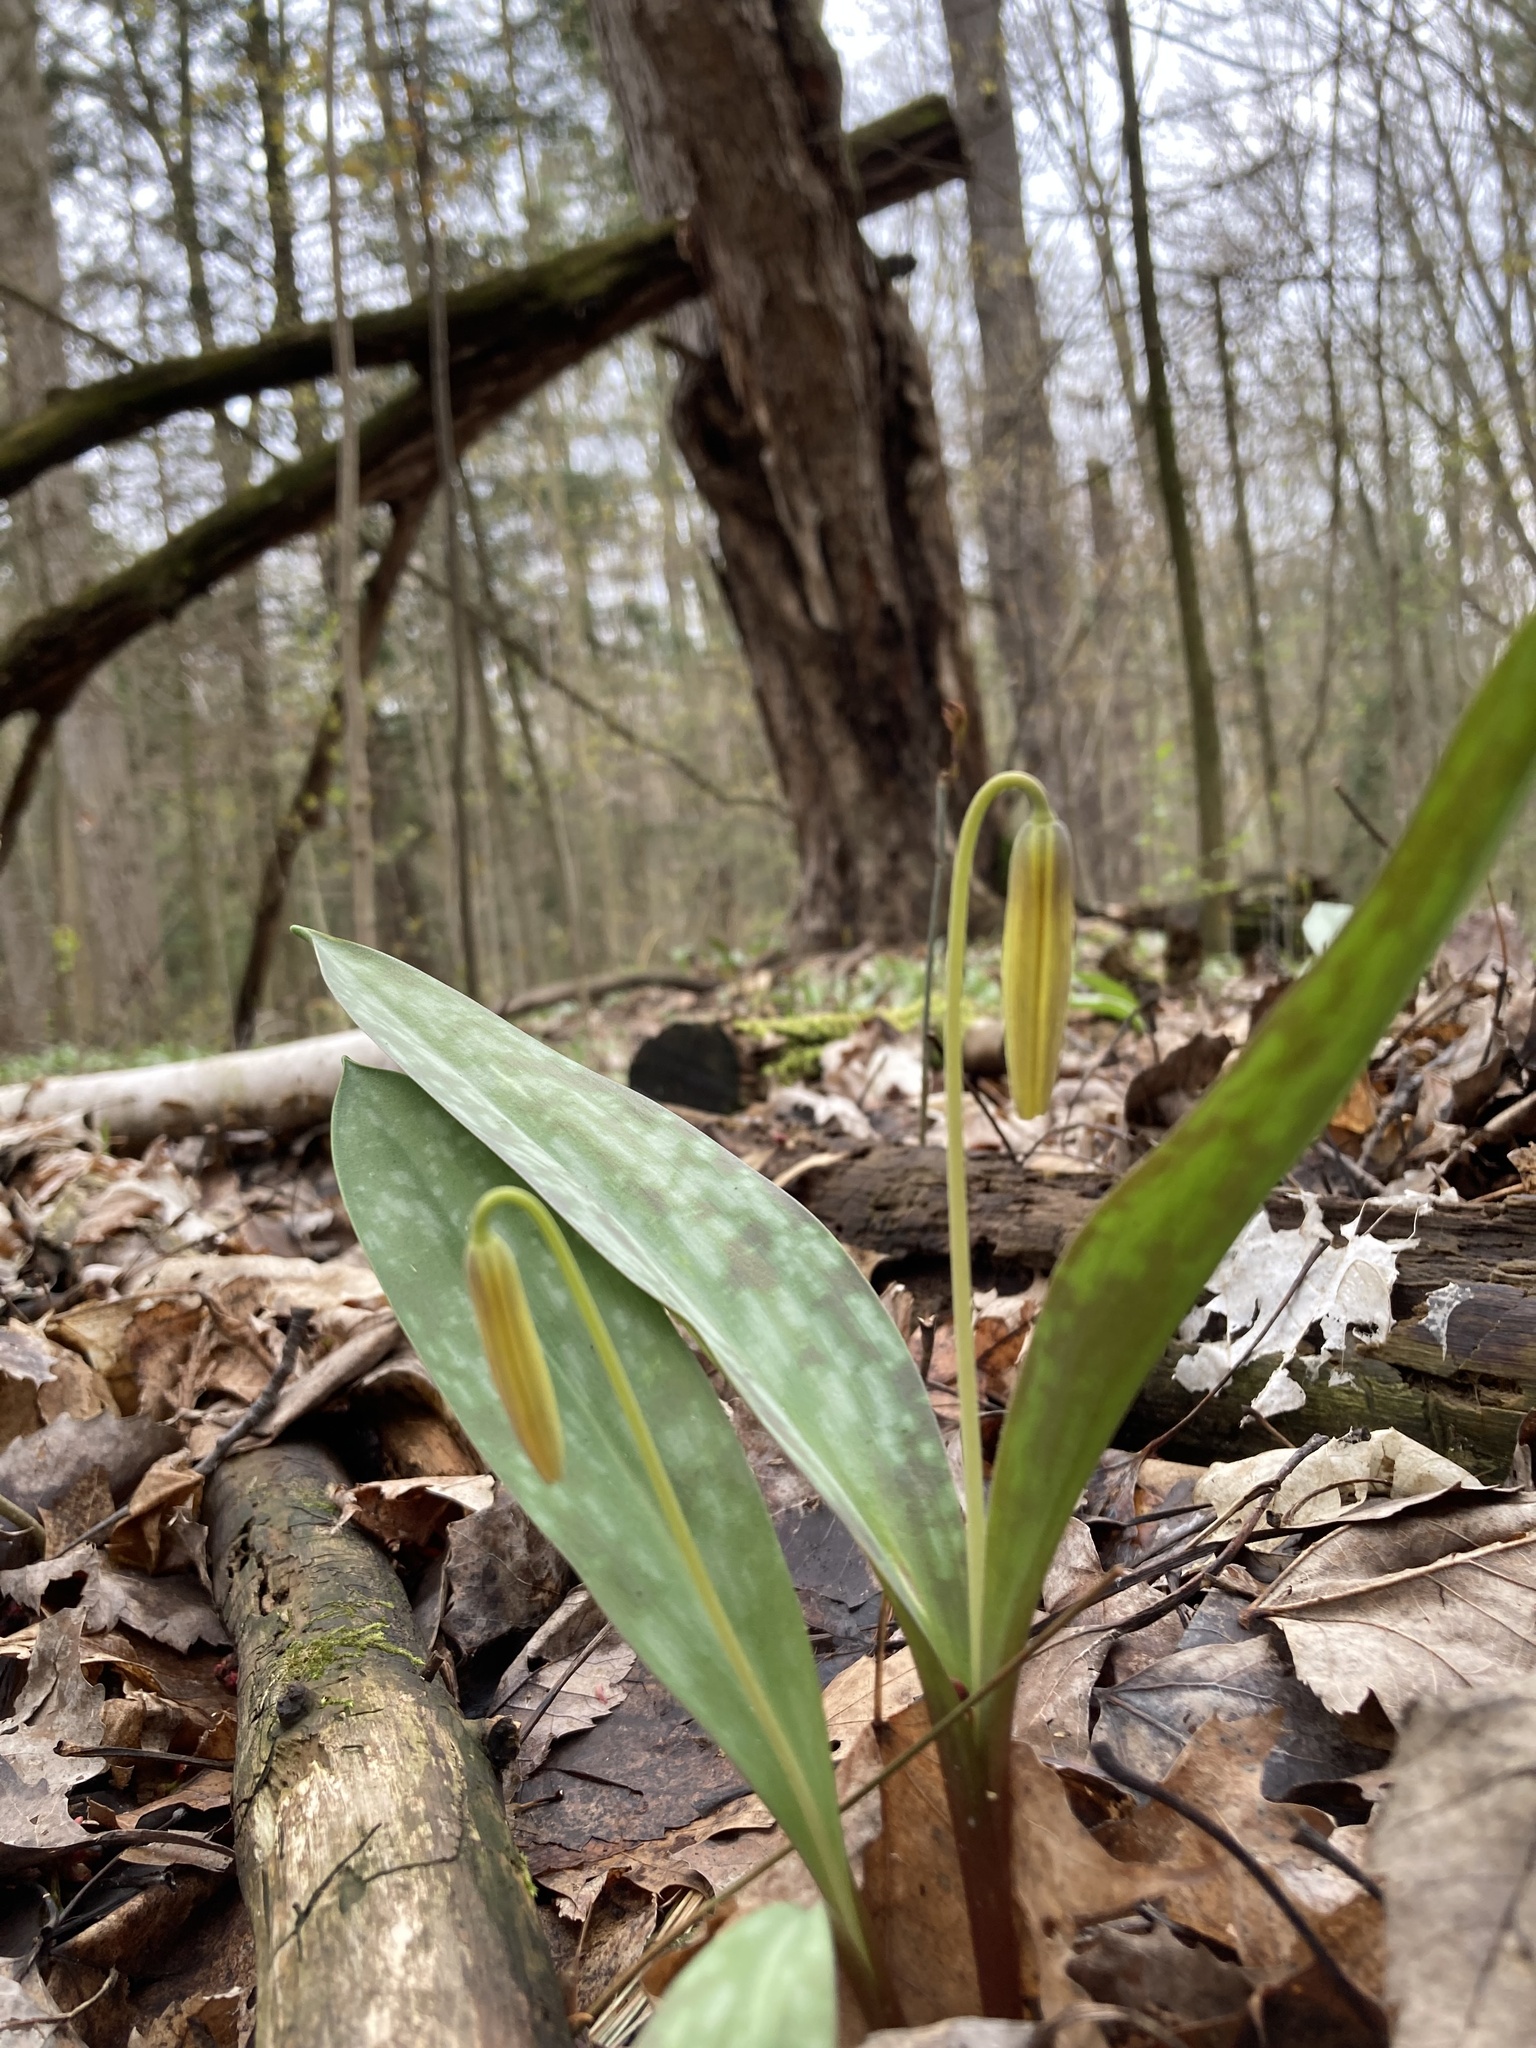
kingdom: Plantae
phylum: Tracheophyta
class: Liliopsida
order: Liliales
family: Liliaceae
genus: Erythronium
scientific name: Erythronium americanum
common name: Yellow adder's-tongue
